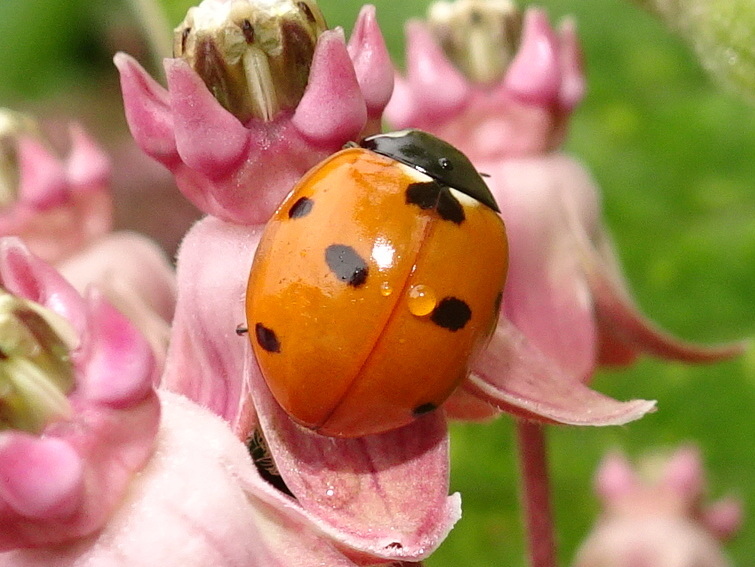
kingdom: Animalia
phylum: Arthropoda
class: Insecta
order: Coleoptera
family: Coccinellidae
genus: Coccinella
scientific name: Coccinella septempunctata
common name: Sevenspotted lady beetle
